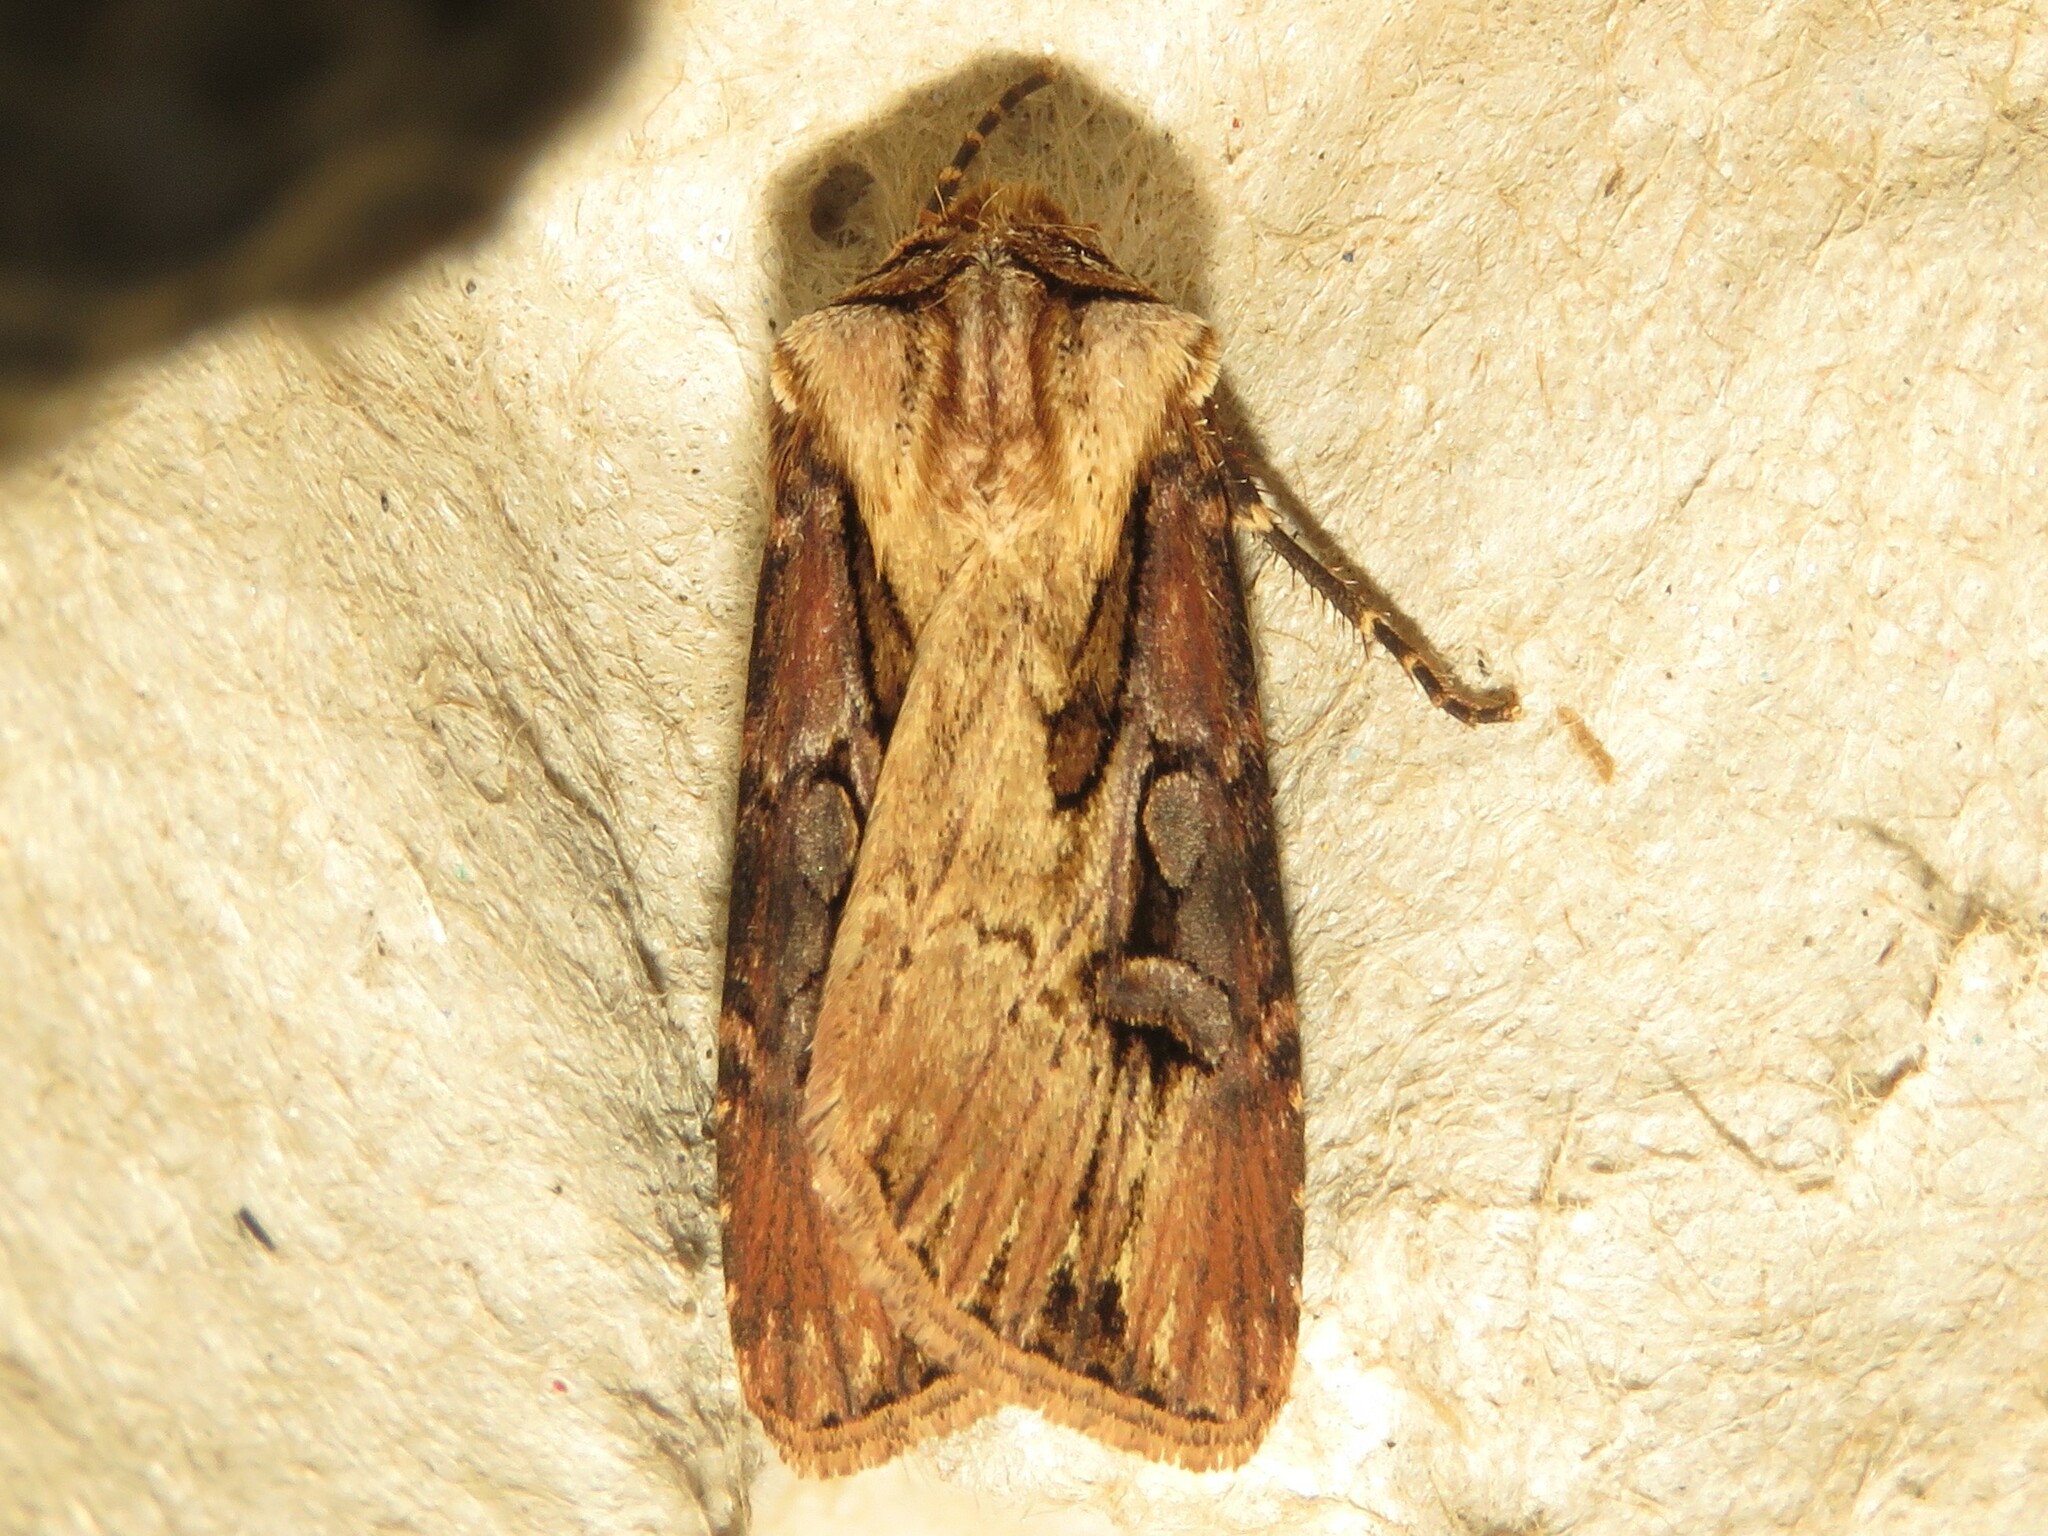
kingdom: Animalia
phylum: Arthropoda
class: Insecta
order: Lepidoptera
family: Noctuidae
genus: Agrotis
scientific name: Agrotis volubilis
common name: Voluble dart
